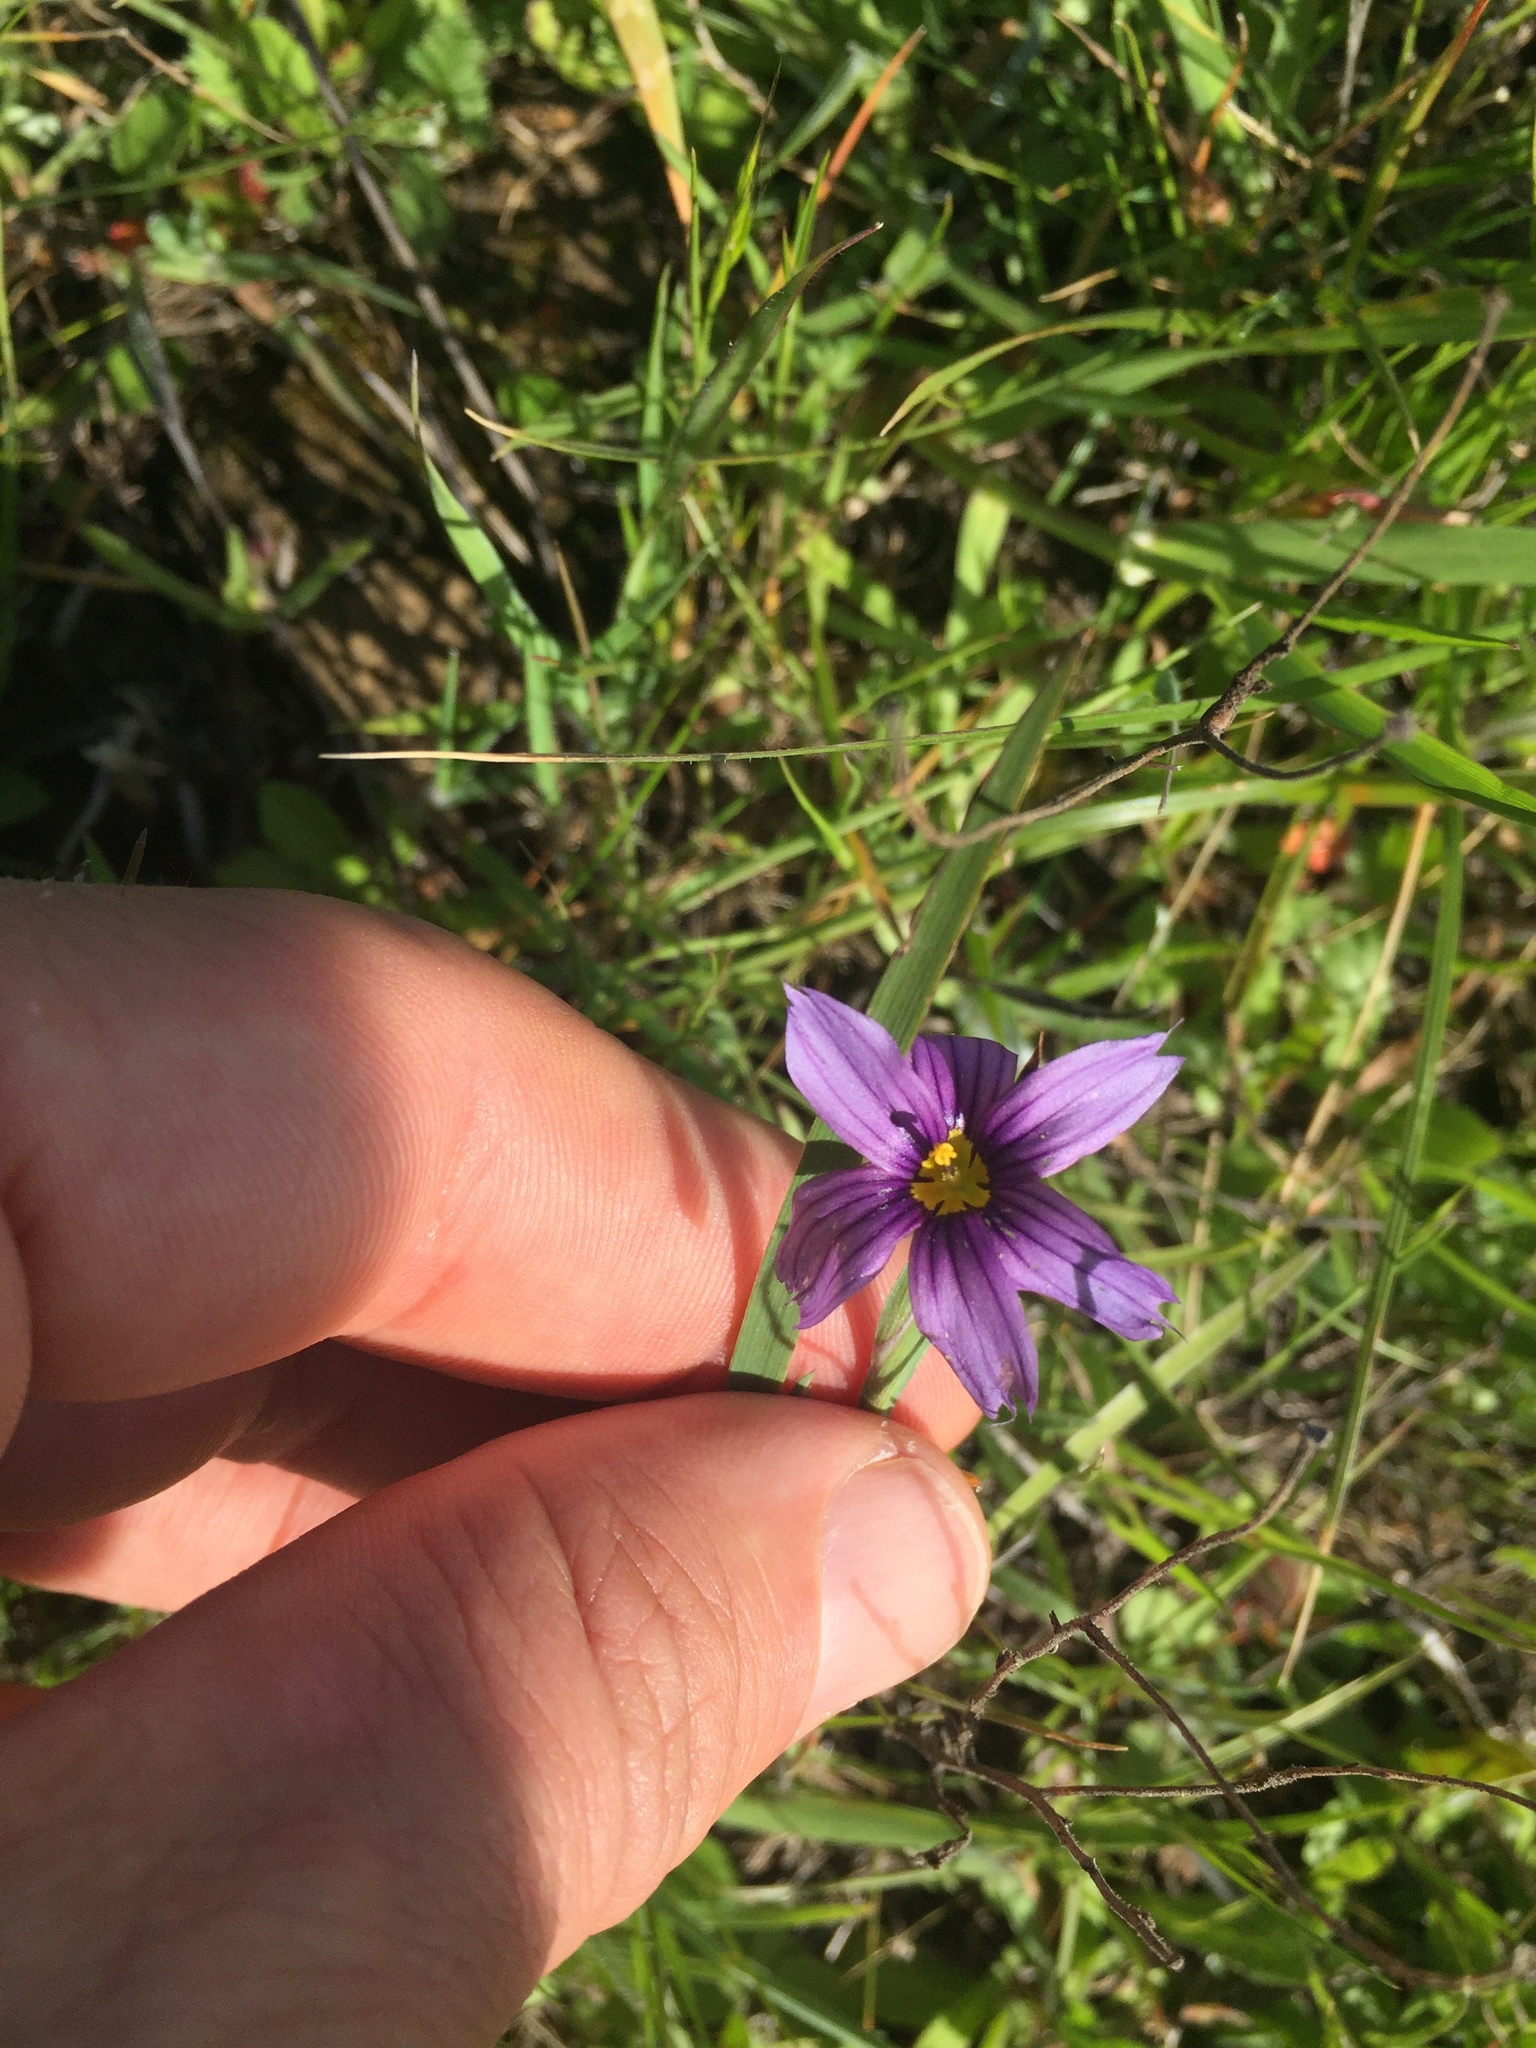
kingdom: Plantae
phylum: Tracheophyta
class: Liliopsida
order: Asparagales
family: Iridaceae
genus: Sisyrinchium
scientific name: Sisyrinchium bellum
